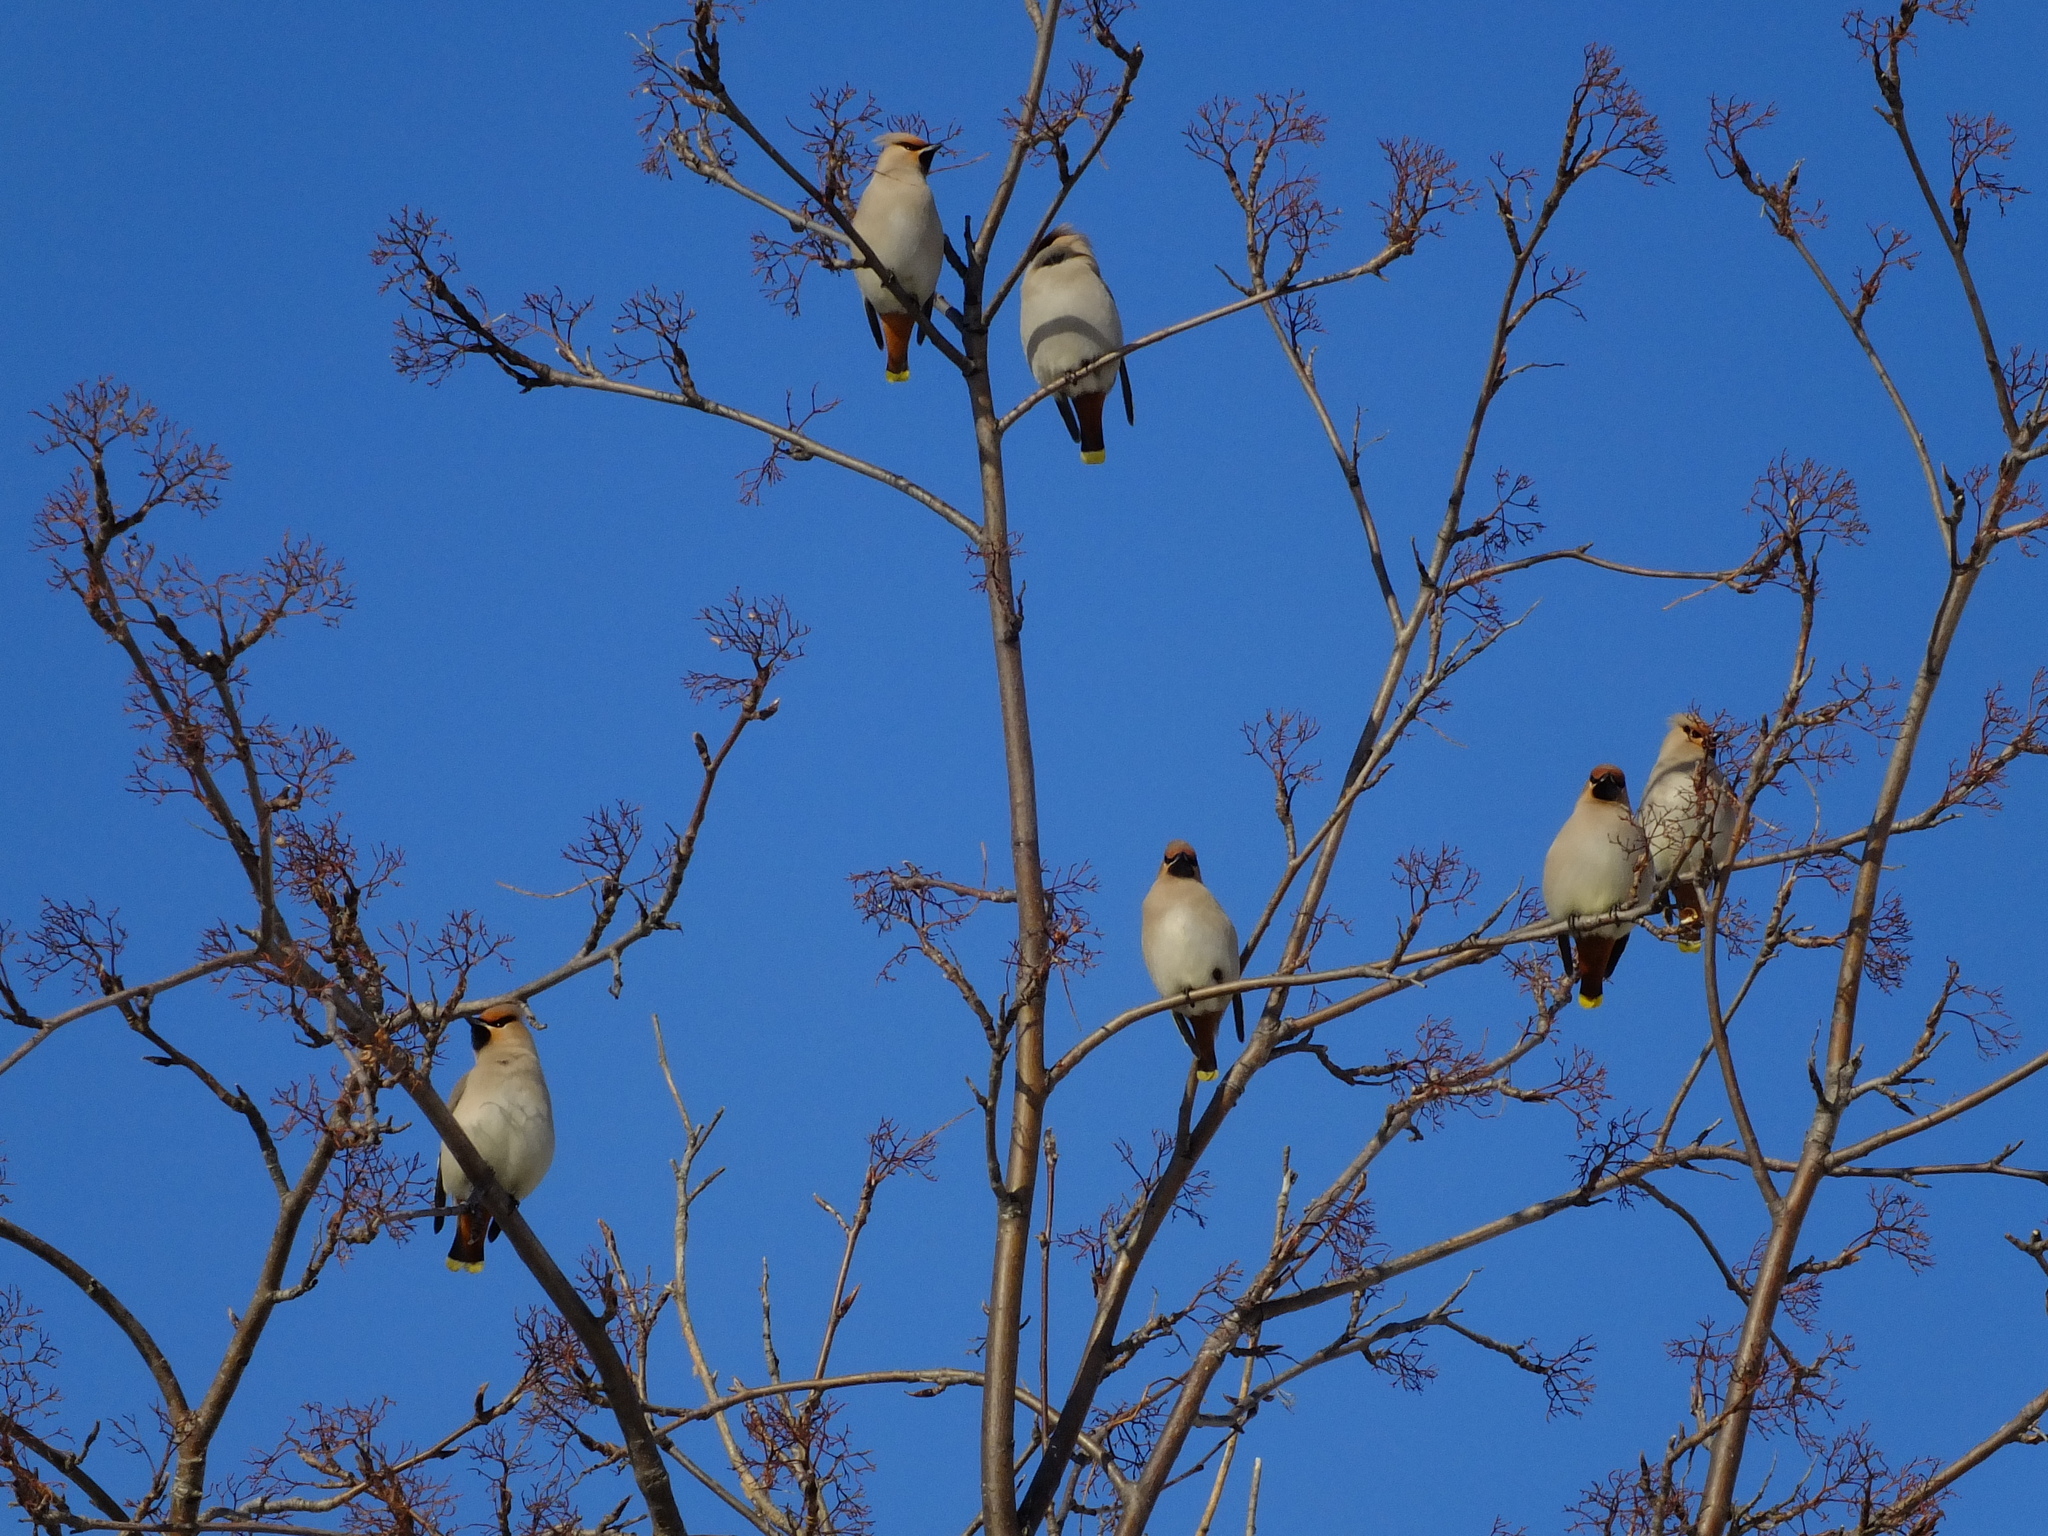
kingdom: Animalia
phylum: Chordata
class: Aves
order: Passeriformes
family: Bombycillidae
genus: Bombycilla
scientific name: Bombycilla garrulus
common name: Bohemian waxwing
